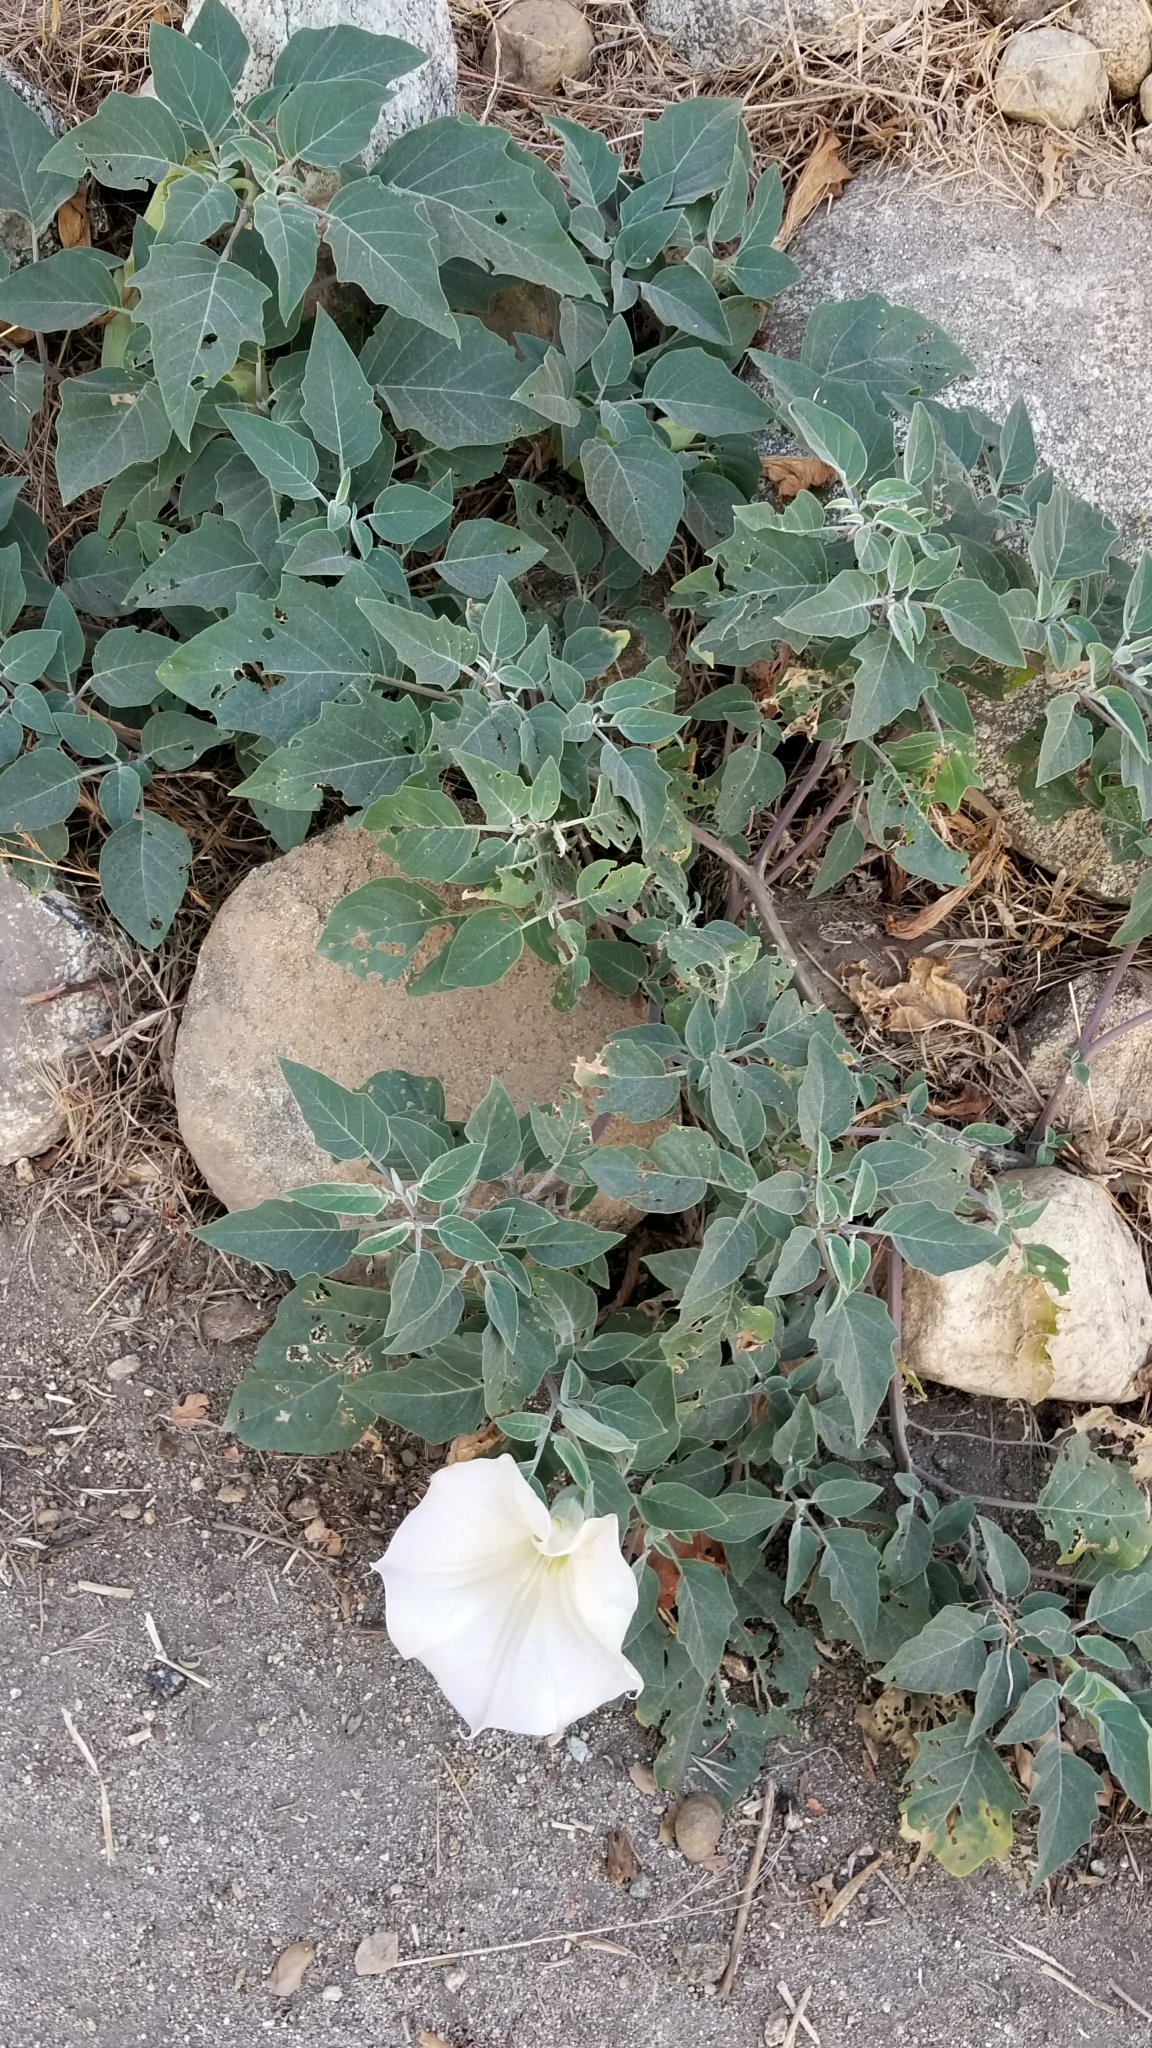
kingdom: Plantae
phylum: Tracheophyta
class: Magnoliopsida
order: Solanales
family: Solanaceae
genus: Datura
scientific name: Datura wrightii
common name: Sacred thorn-apple
